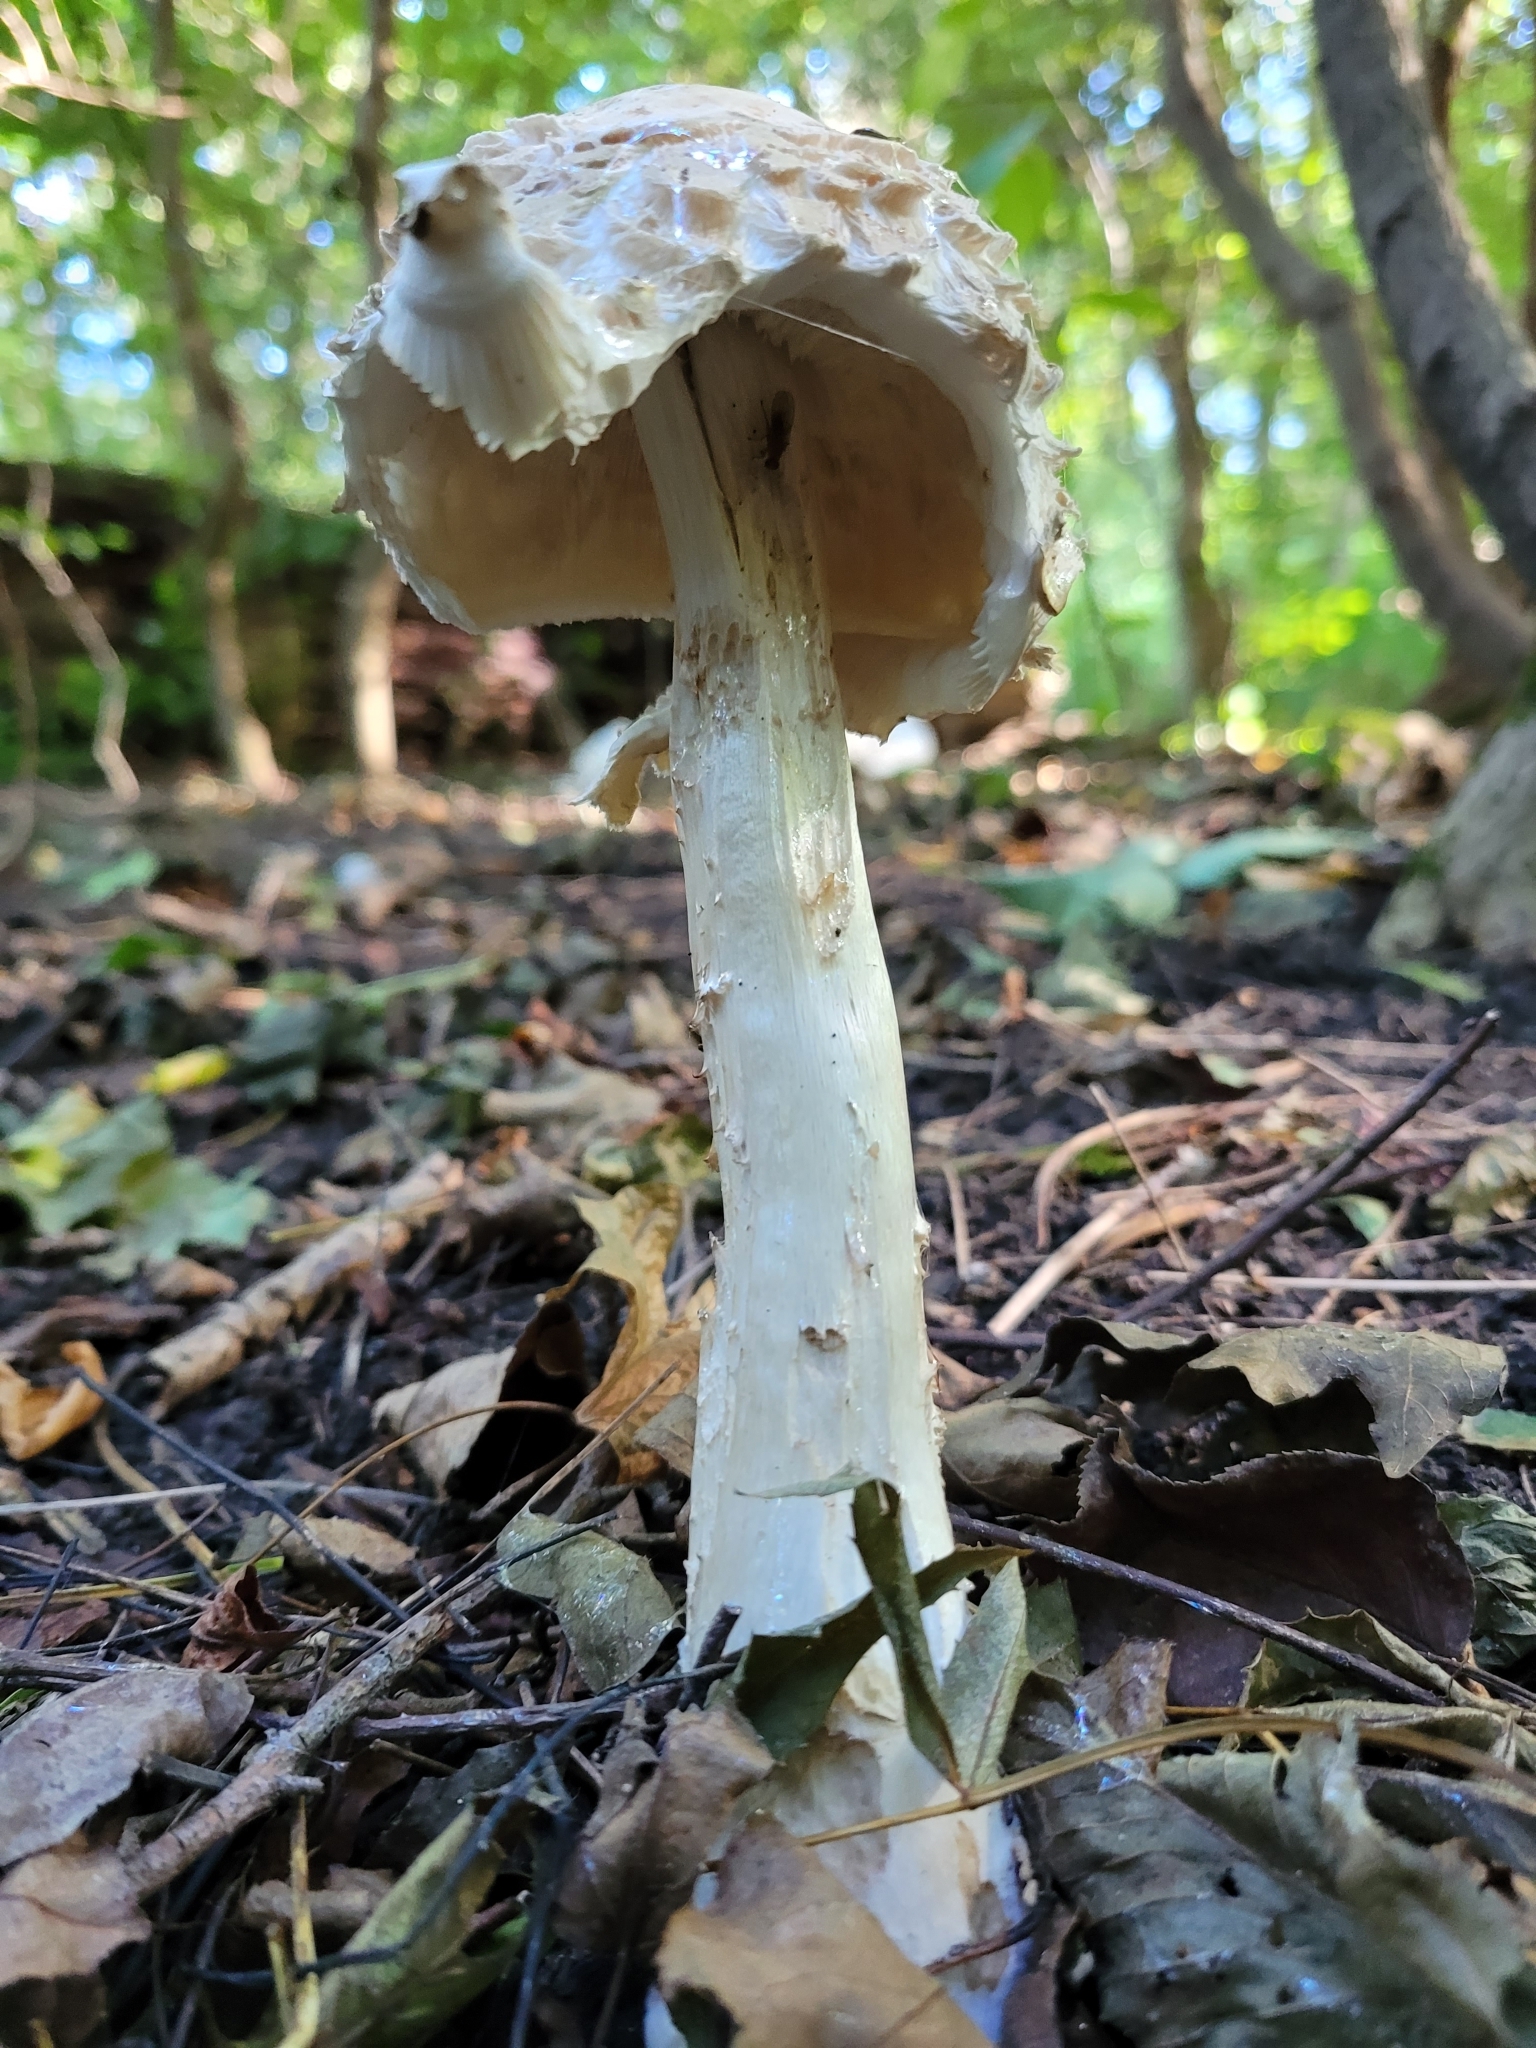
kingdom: Fungi
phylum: Basidiomycota
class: Agaricomycetes
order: Agaricales
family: Agaricaceae
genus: Chlorophyllum
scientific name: Chlorophyllum rhacodes
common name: Shaggy parasol
